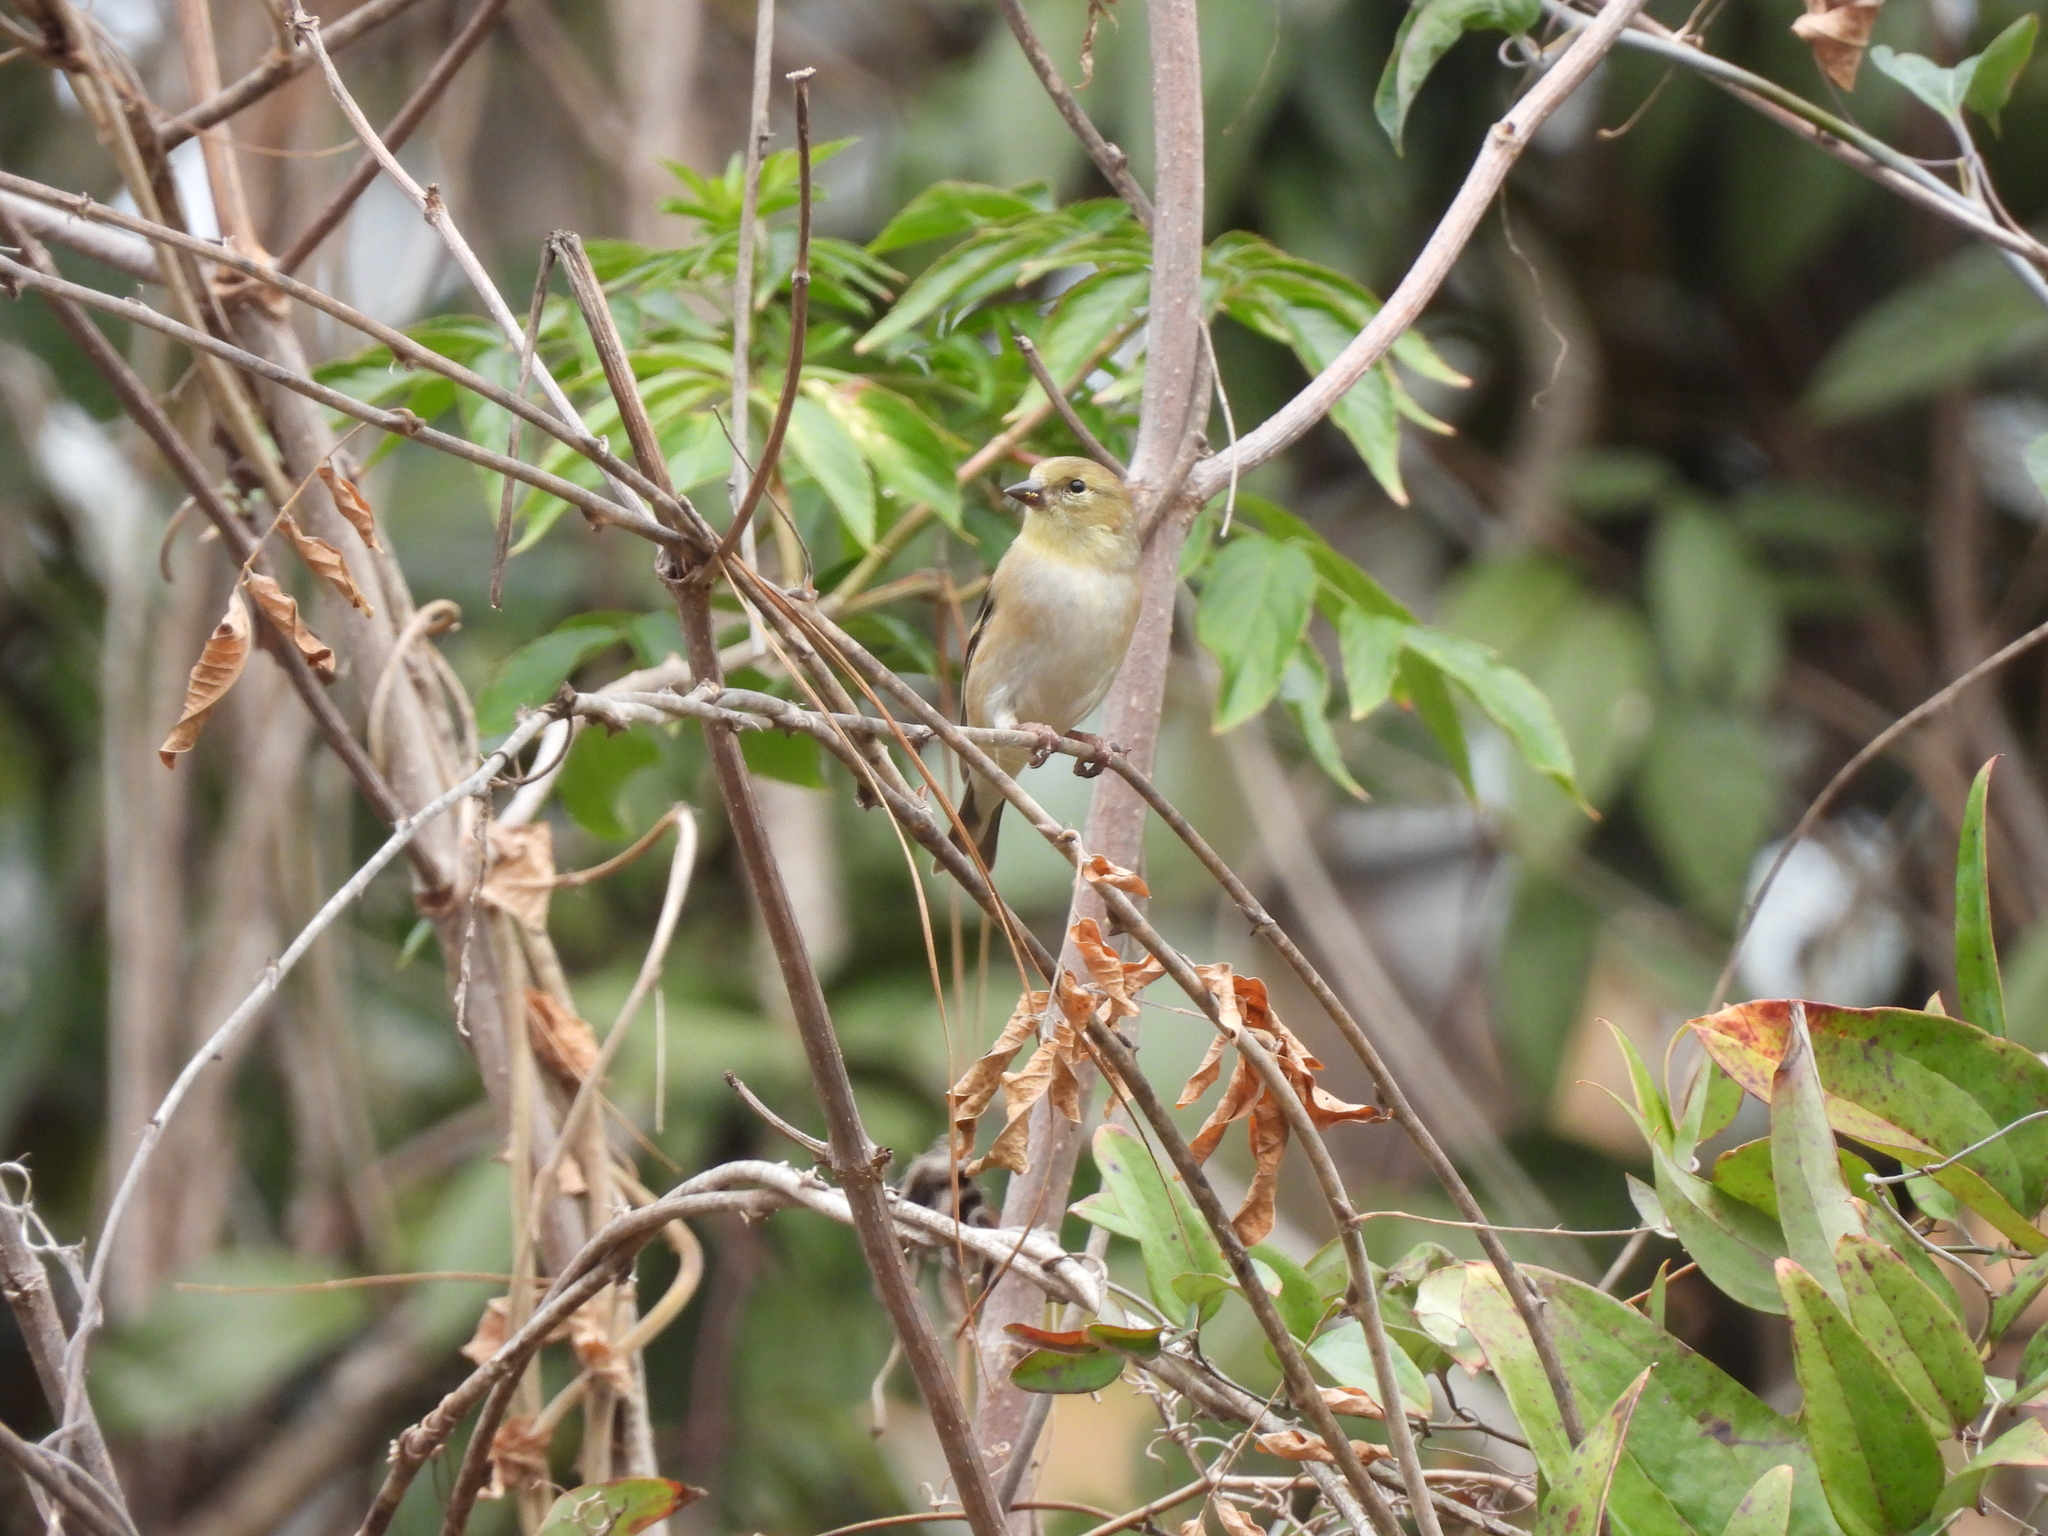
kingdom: Animalia
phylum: Chordata
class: Aves
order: Passeriformes
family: Fringillidae
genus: Spinus
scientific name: Spinus tristis
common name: American goldfinch
